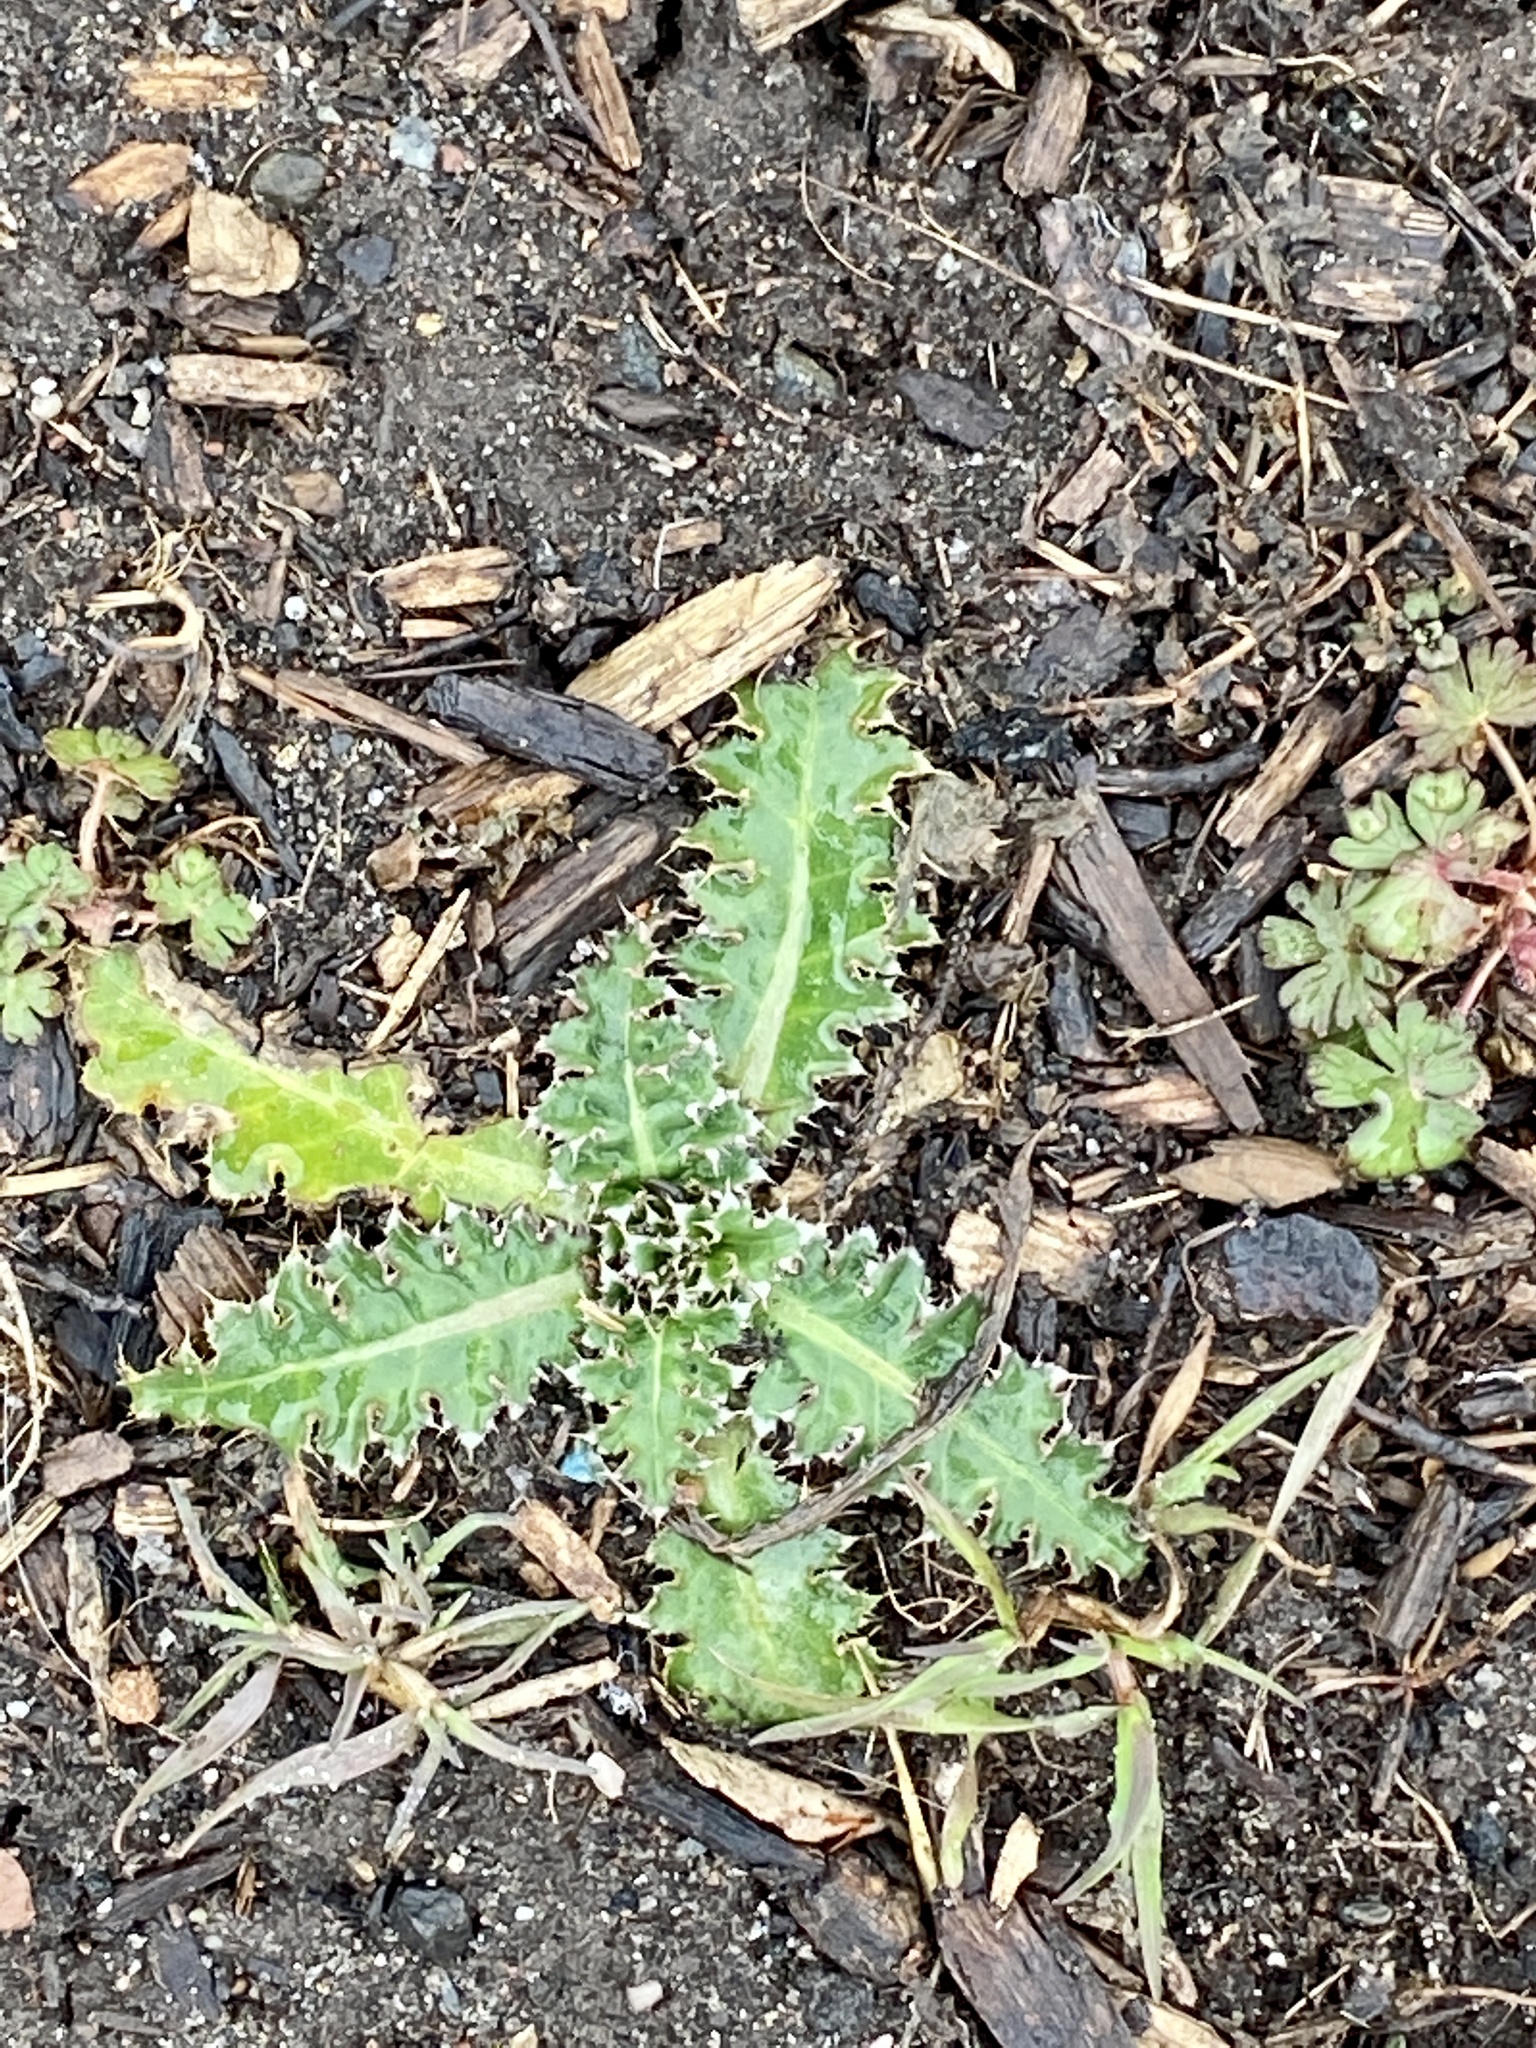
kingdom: Plantae
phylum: Tracheophyta
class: Magnoliopsida
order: Asterales
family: Asteraceae
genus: Carduus
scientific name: Carduus nutans
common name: Musk thistle
